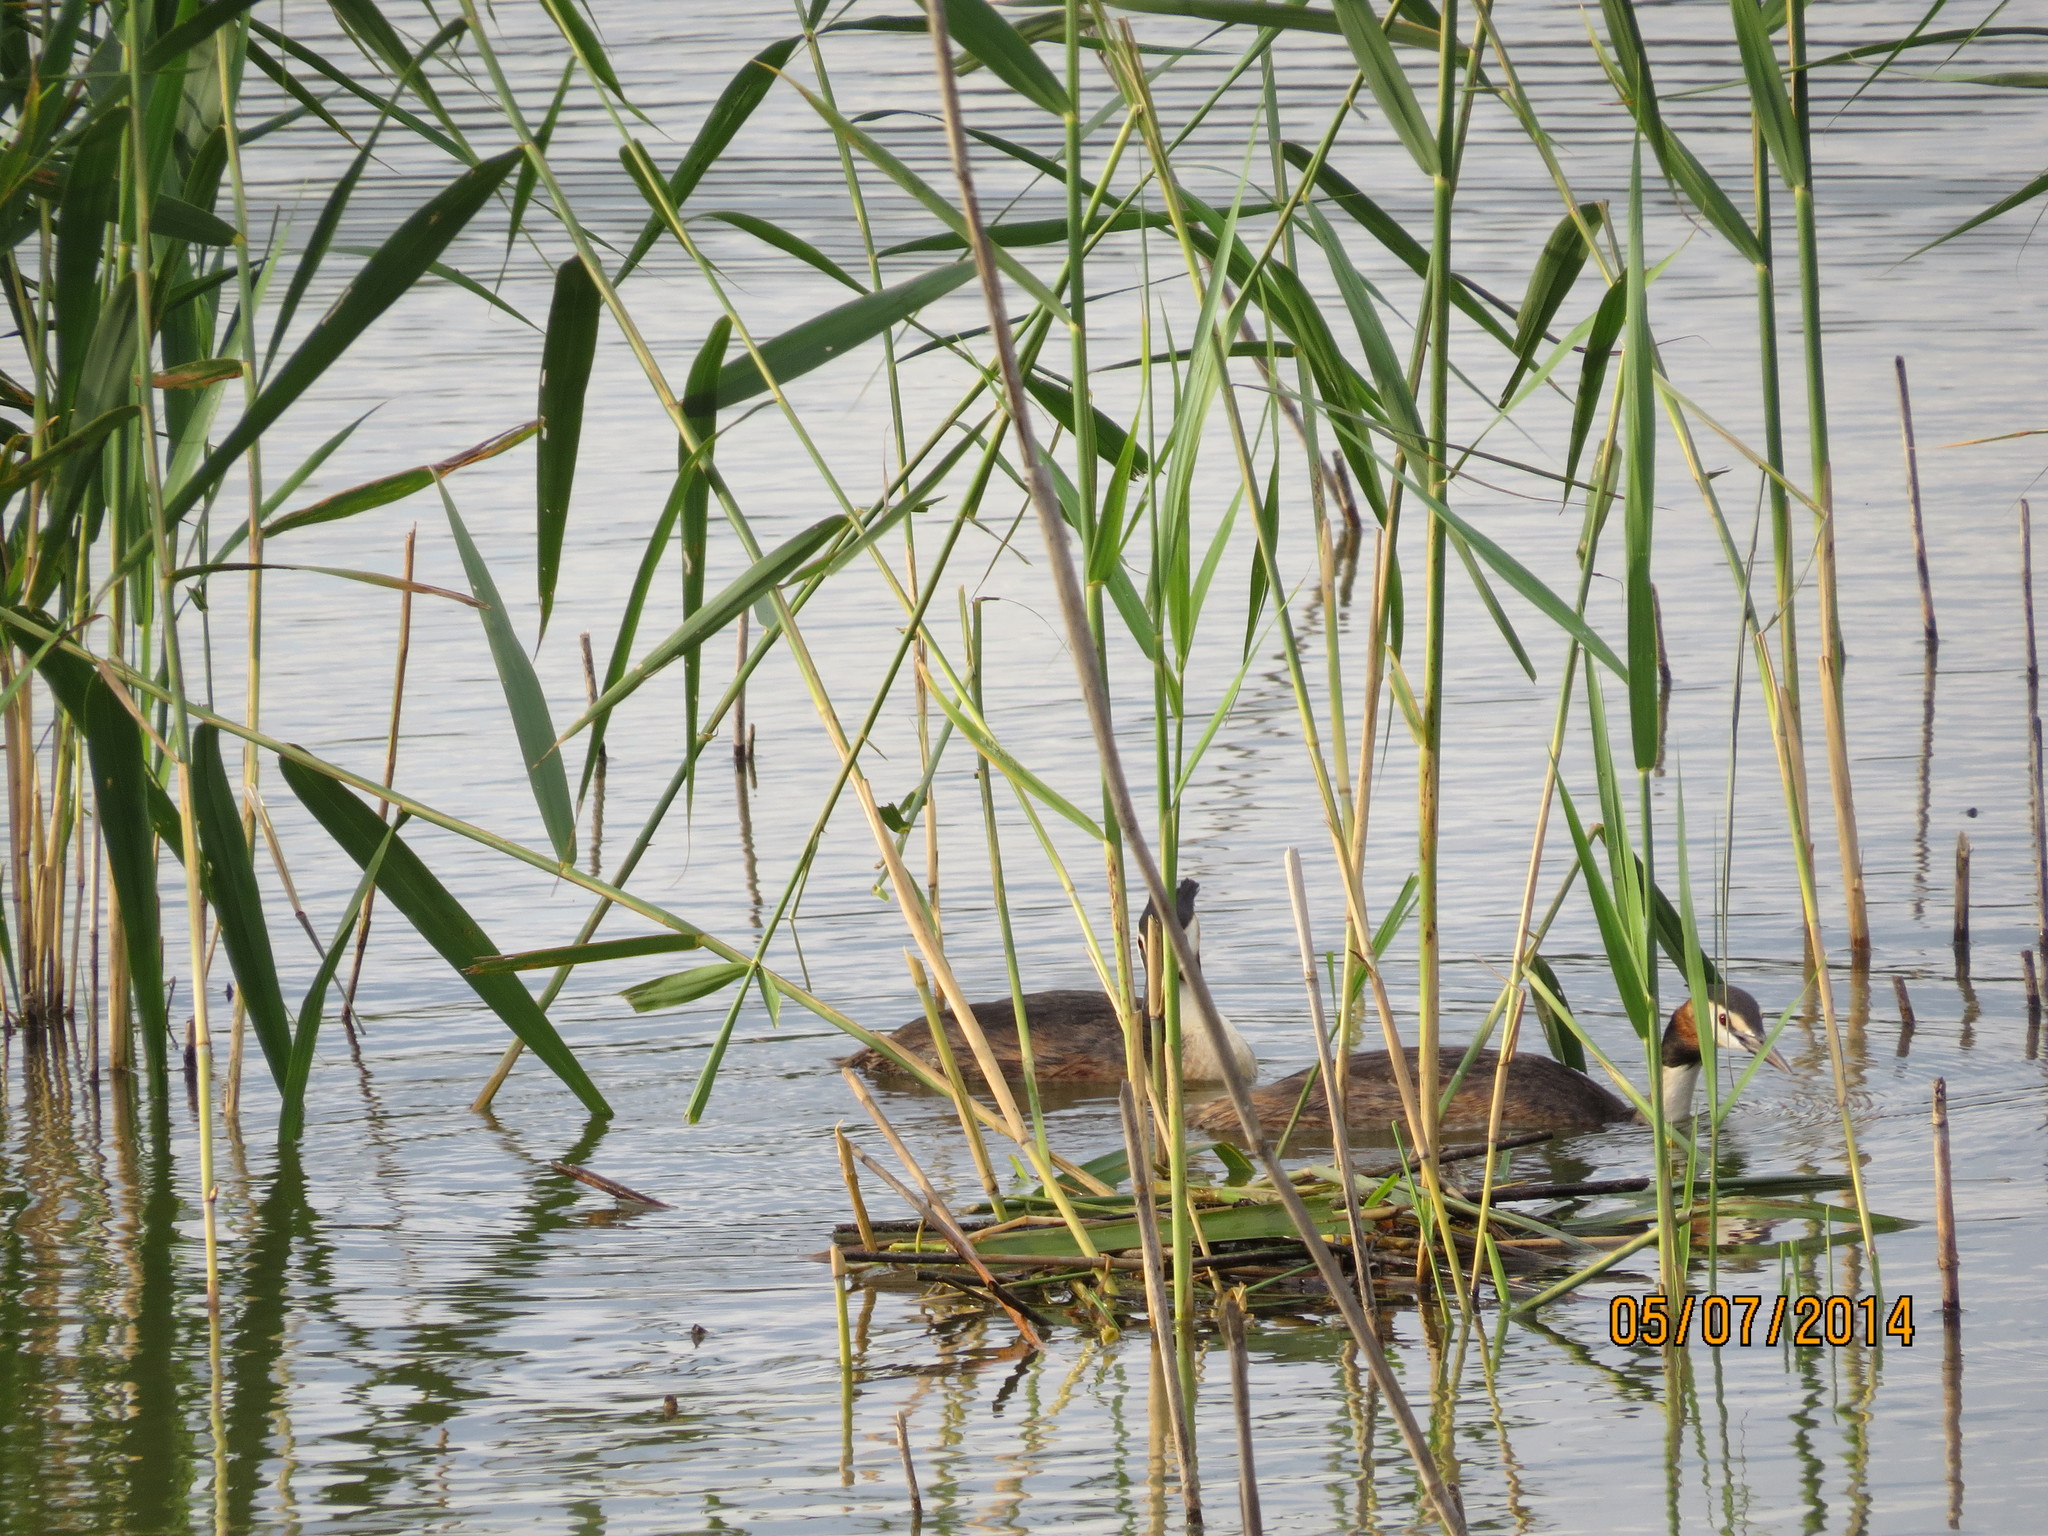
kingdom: Animalia
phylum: Chordata
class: Aves
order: Podicipediformes
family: Podicipedidae
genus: Podiceps
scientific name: Podiceps cristatus
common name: Great crested grebe
